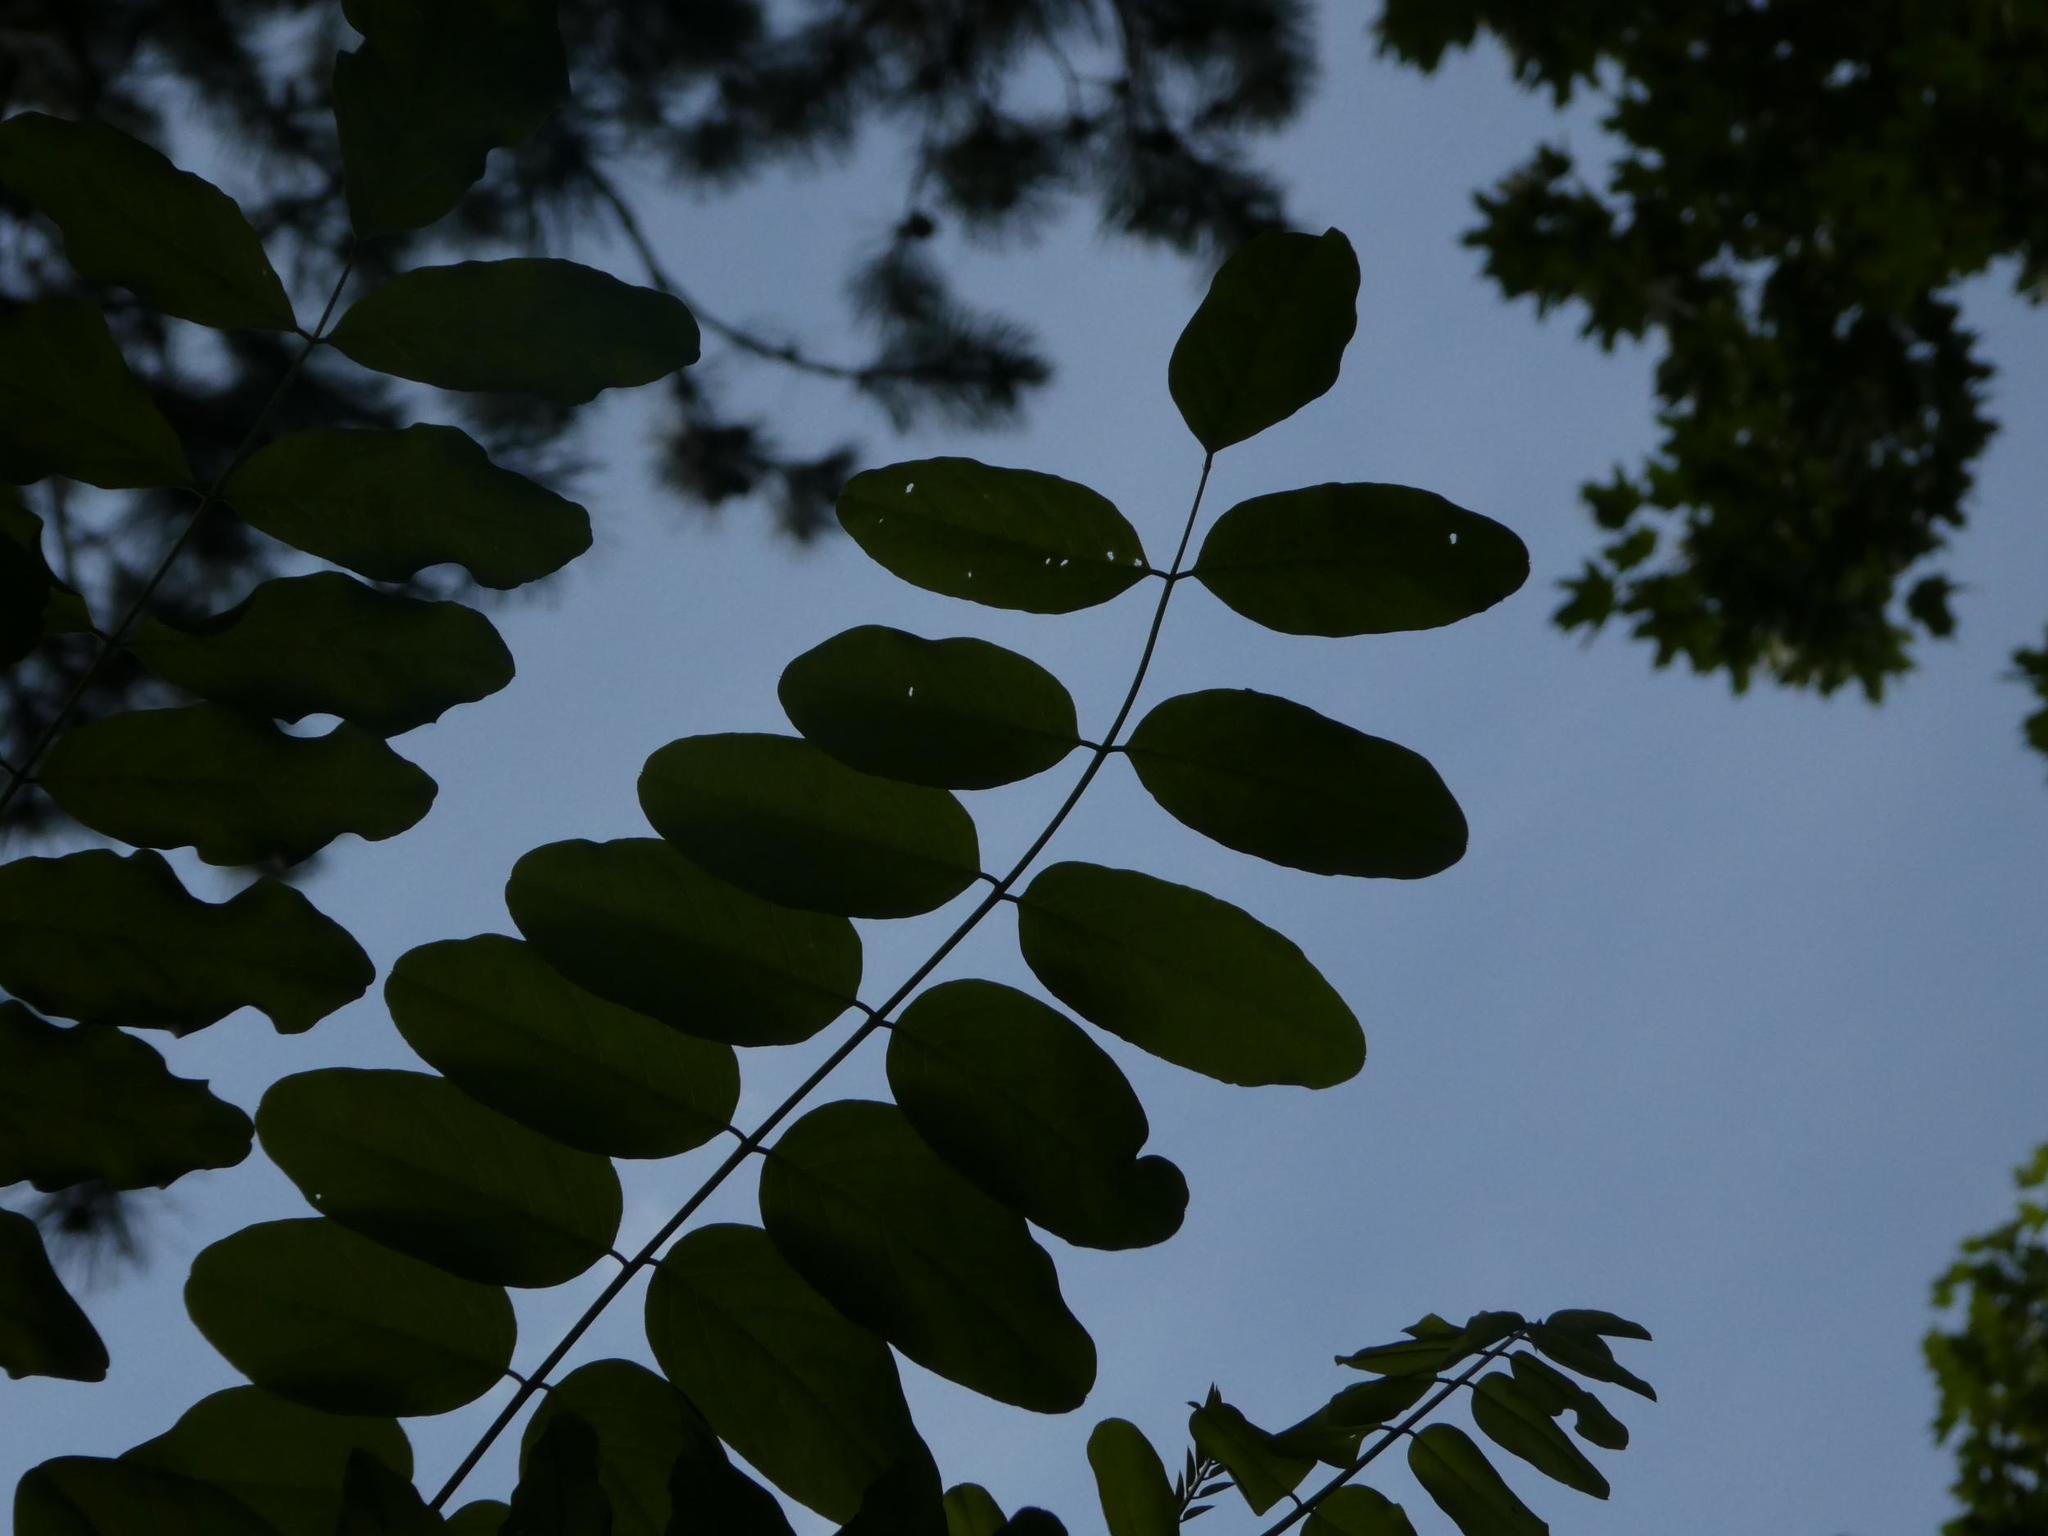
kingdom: Plantae
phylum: Tracheophyta
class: Magnoliopsida
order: Fabales
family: Fabaceae
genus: Robinia
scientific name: Robinia pseudoacacia
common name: Black locust
